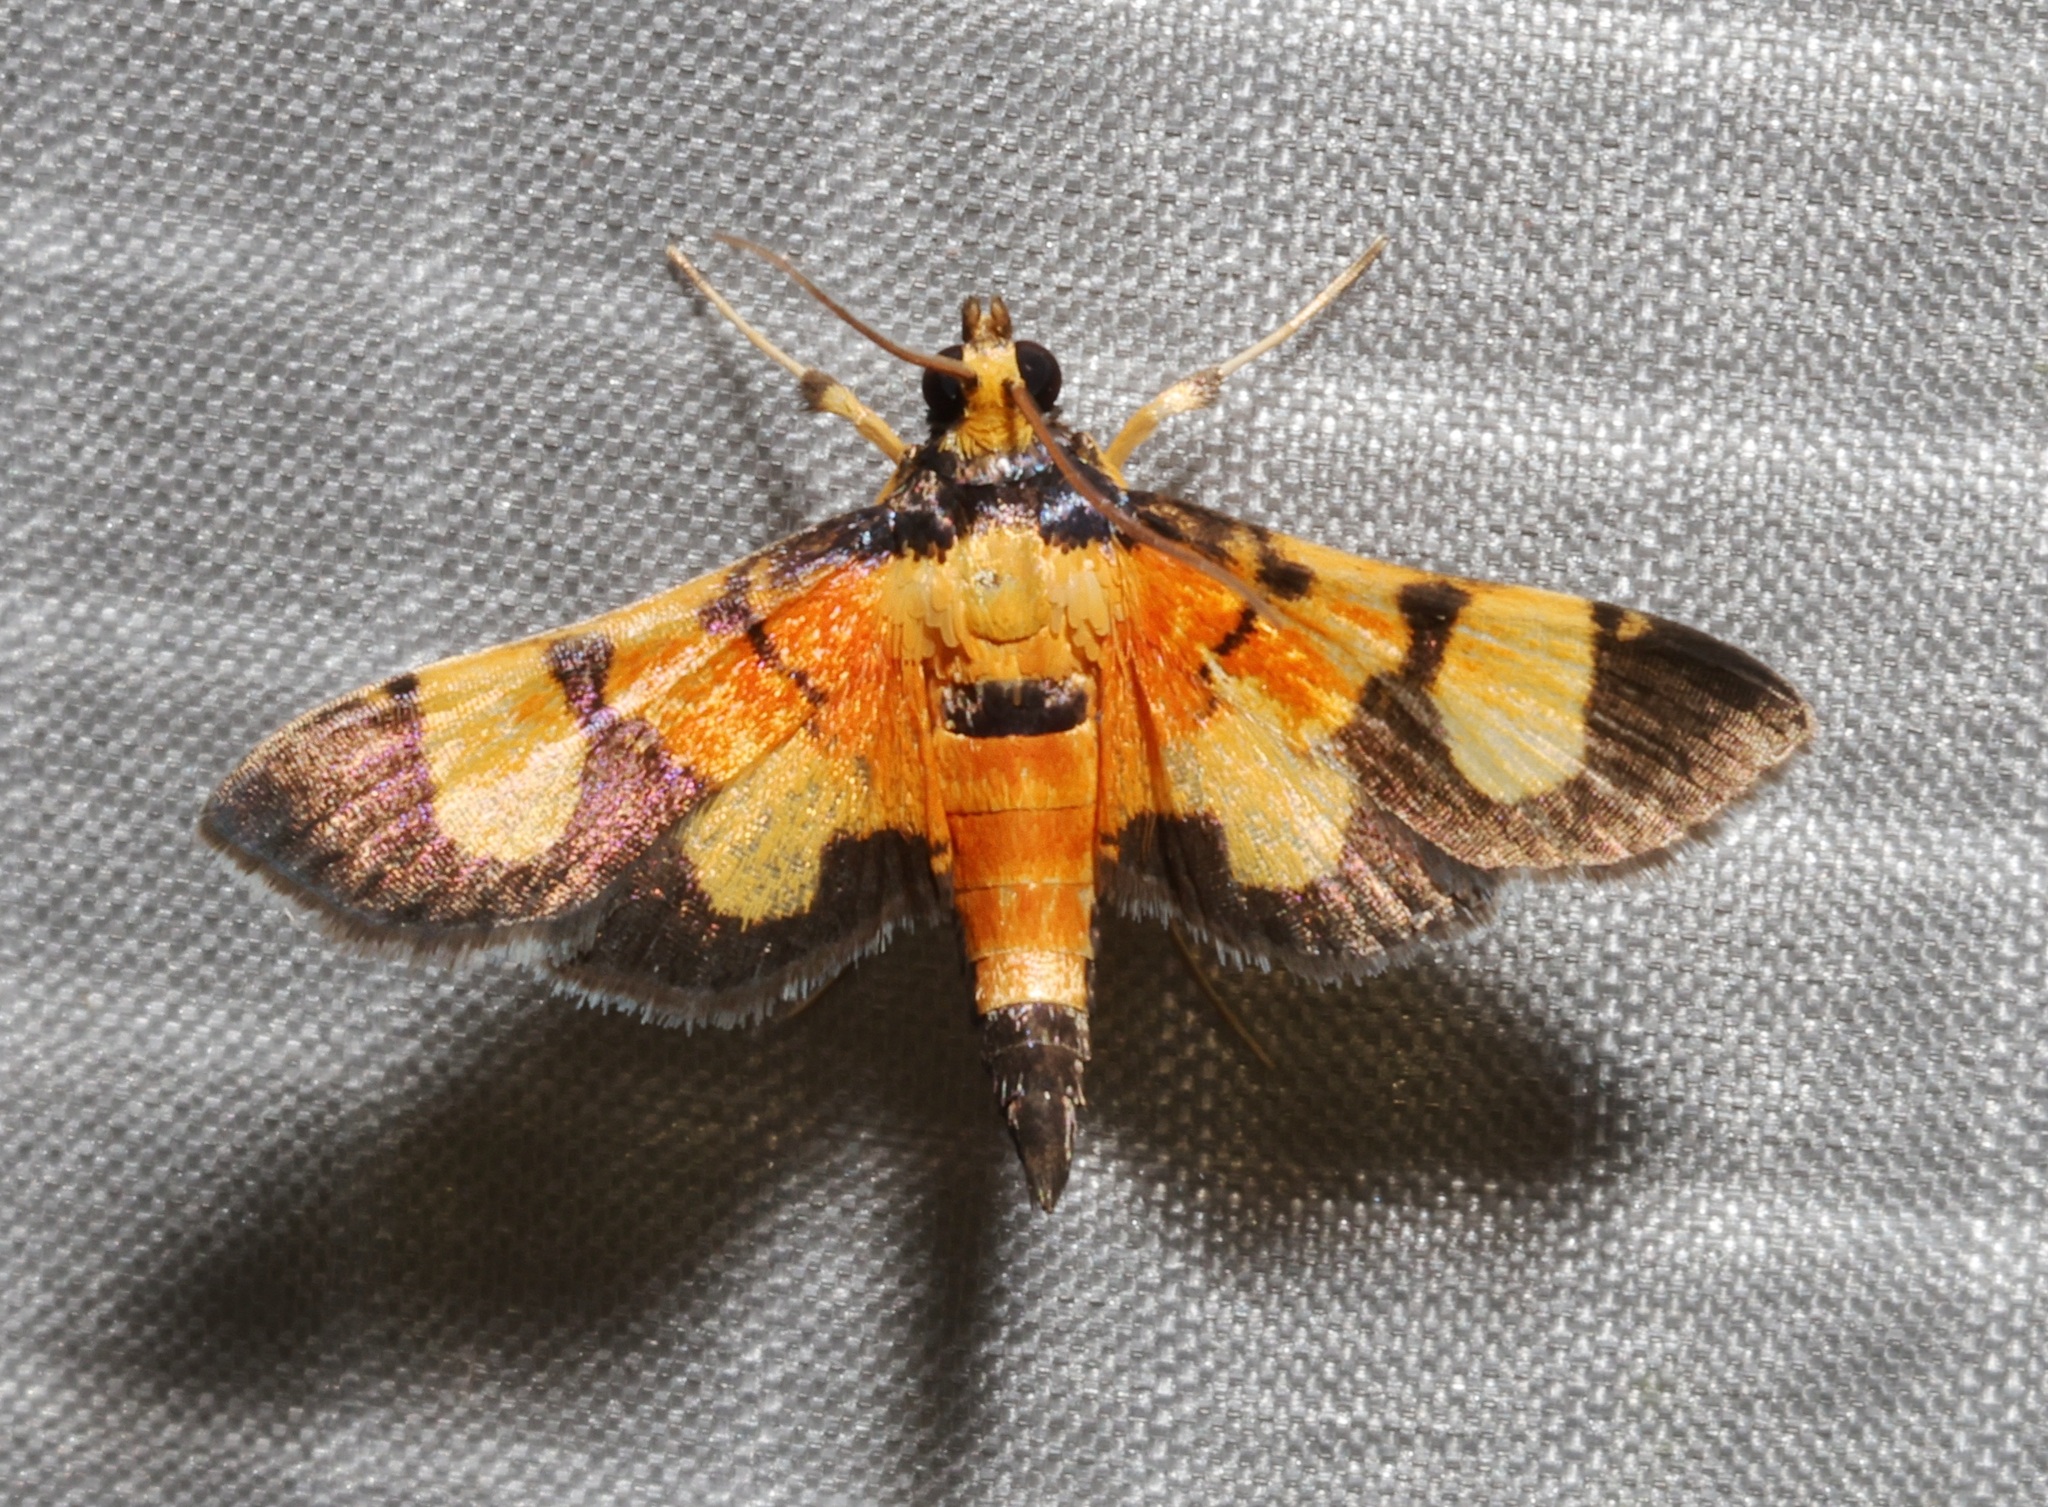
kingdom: Animalia
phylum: Arthropoda
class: Insecta
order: Lepidoptera
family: Crambidae
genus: Aethaloessa
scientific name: Aethaloessa calidalis
